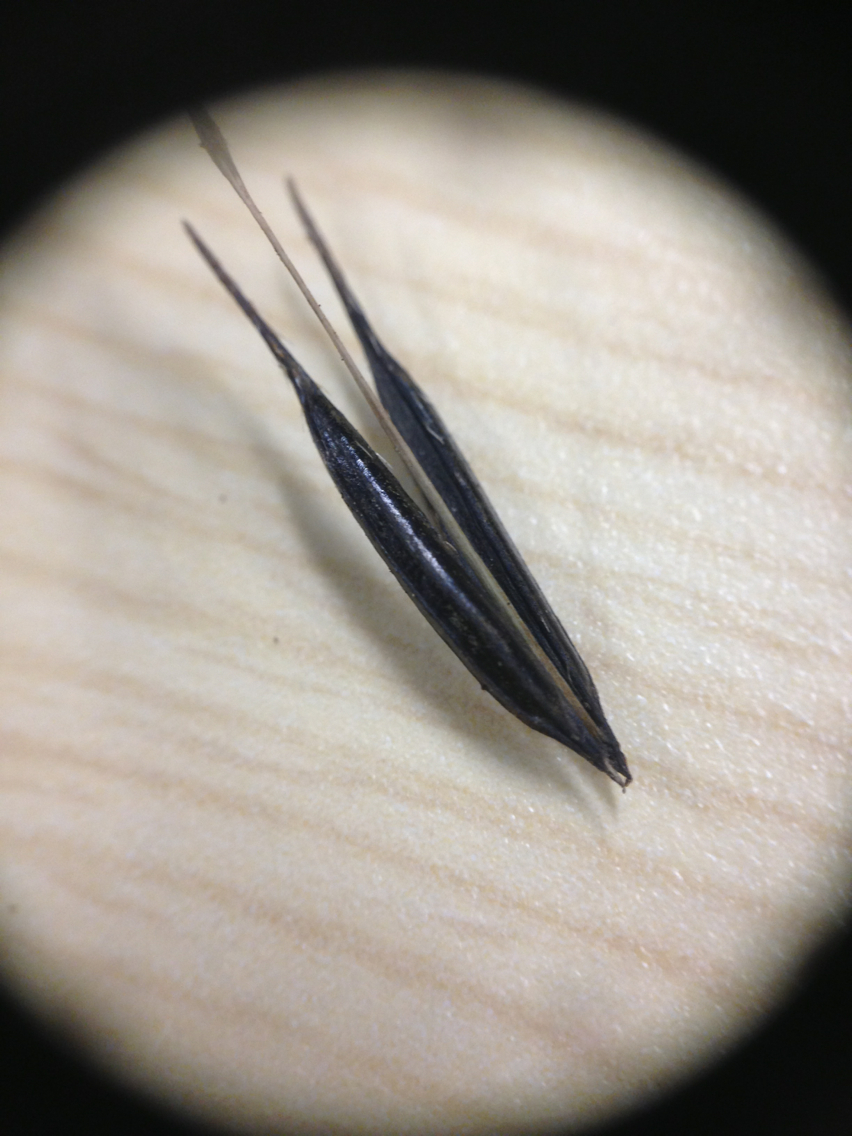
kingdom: Plantae
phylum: Tracheophyta
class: Magnoliopsida
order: Apiales
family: Apiaceae
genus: Cryptotaenia
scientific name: Cryptotaenia canadensis
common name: Honewort
